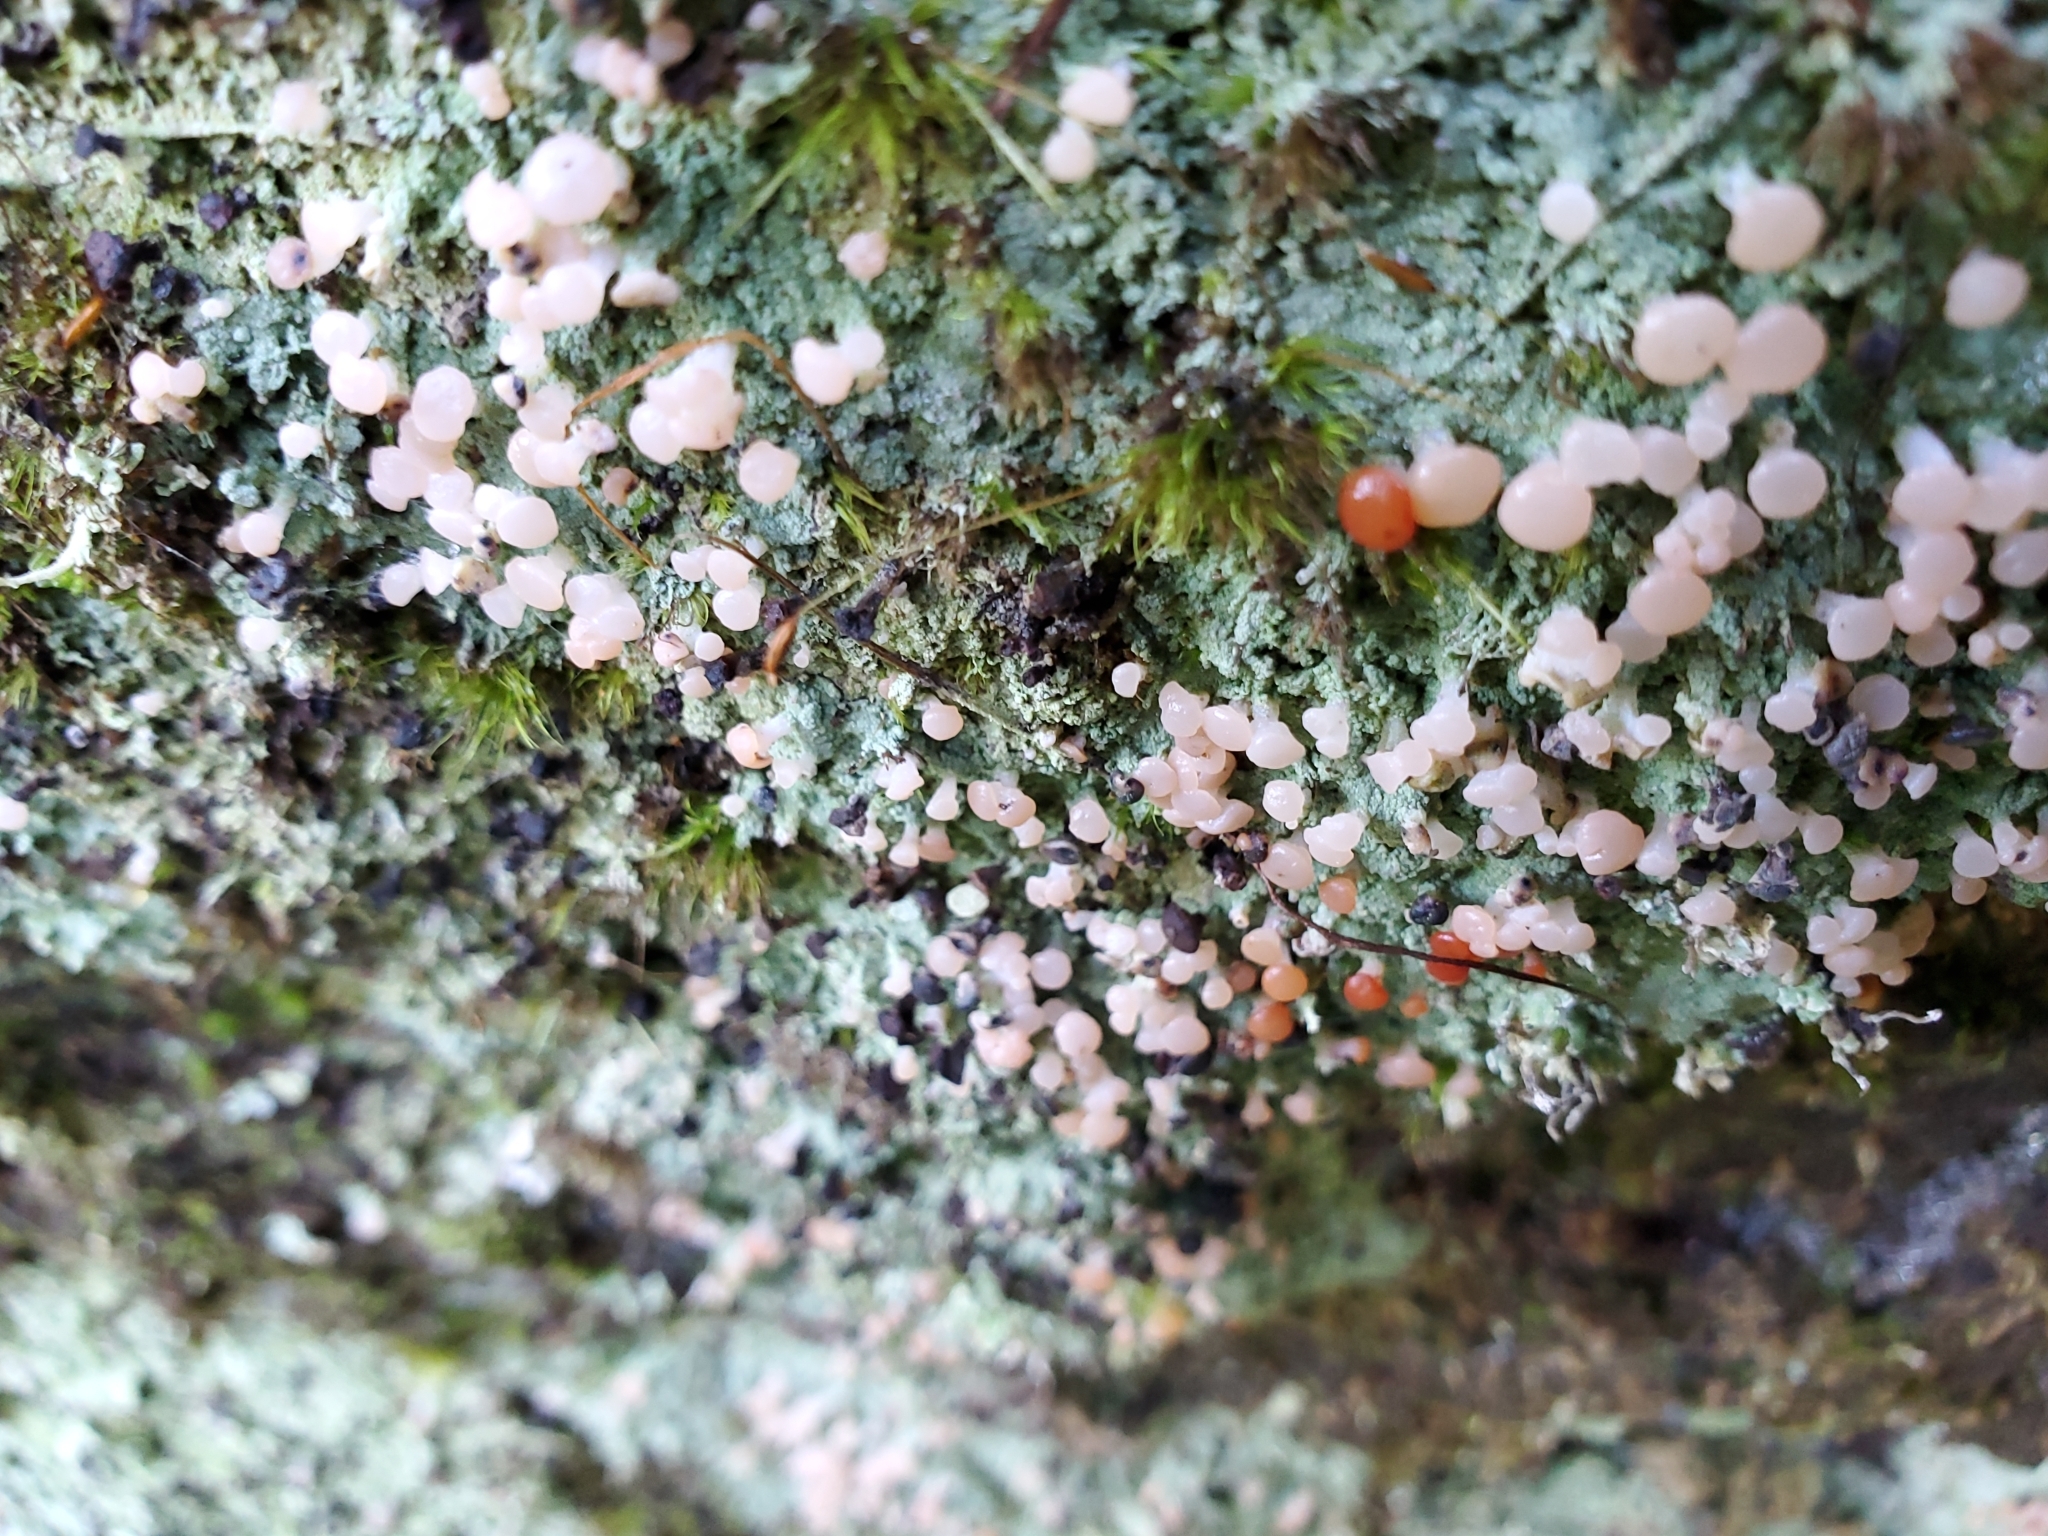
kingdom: Fungi
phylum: Ascomycota
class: Lecanoromycetes
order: Baeomycetales
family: Baeomycetaceae
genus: Baeomyces
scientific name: Baeomyces heteromorphus
